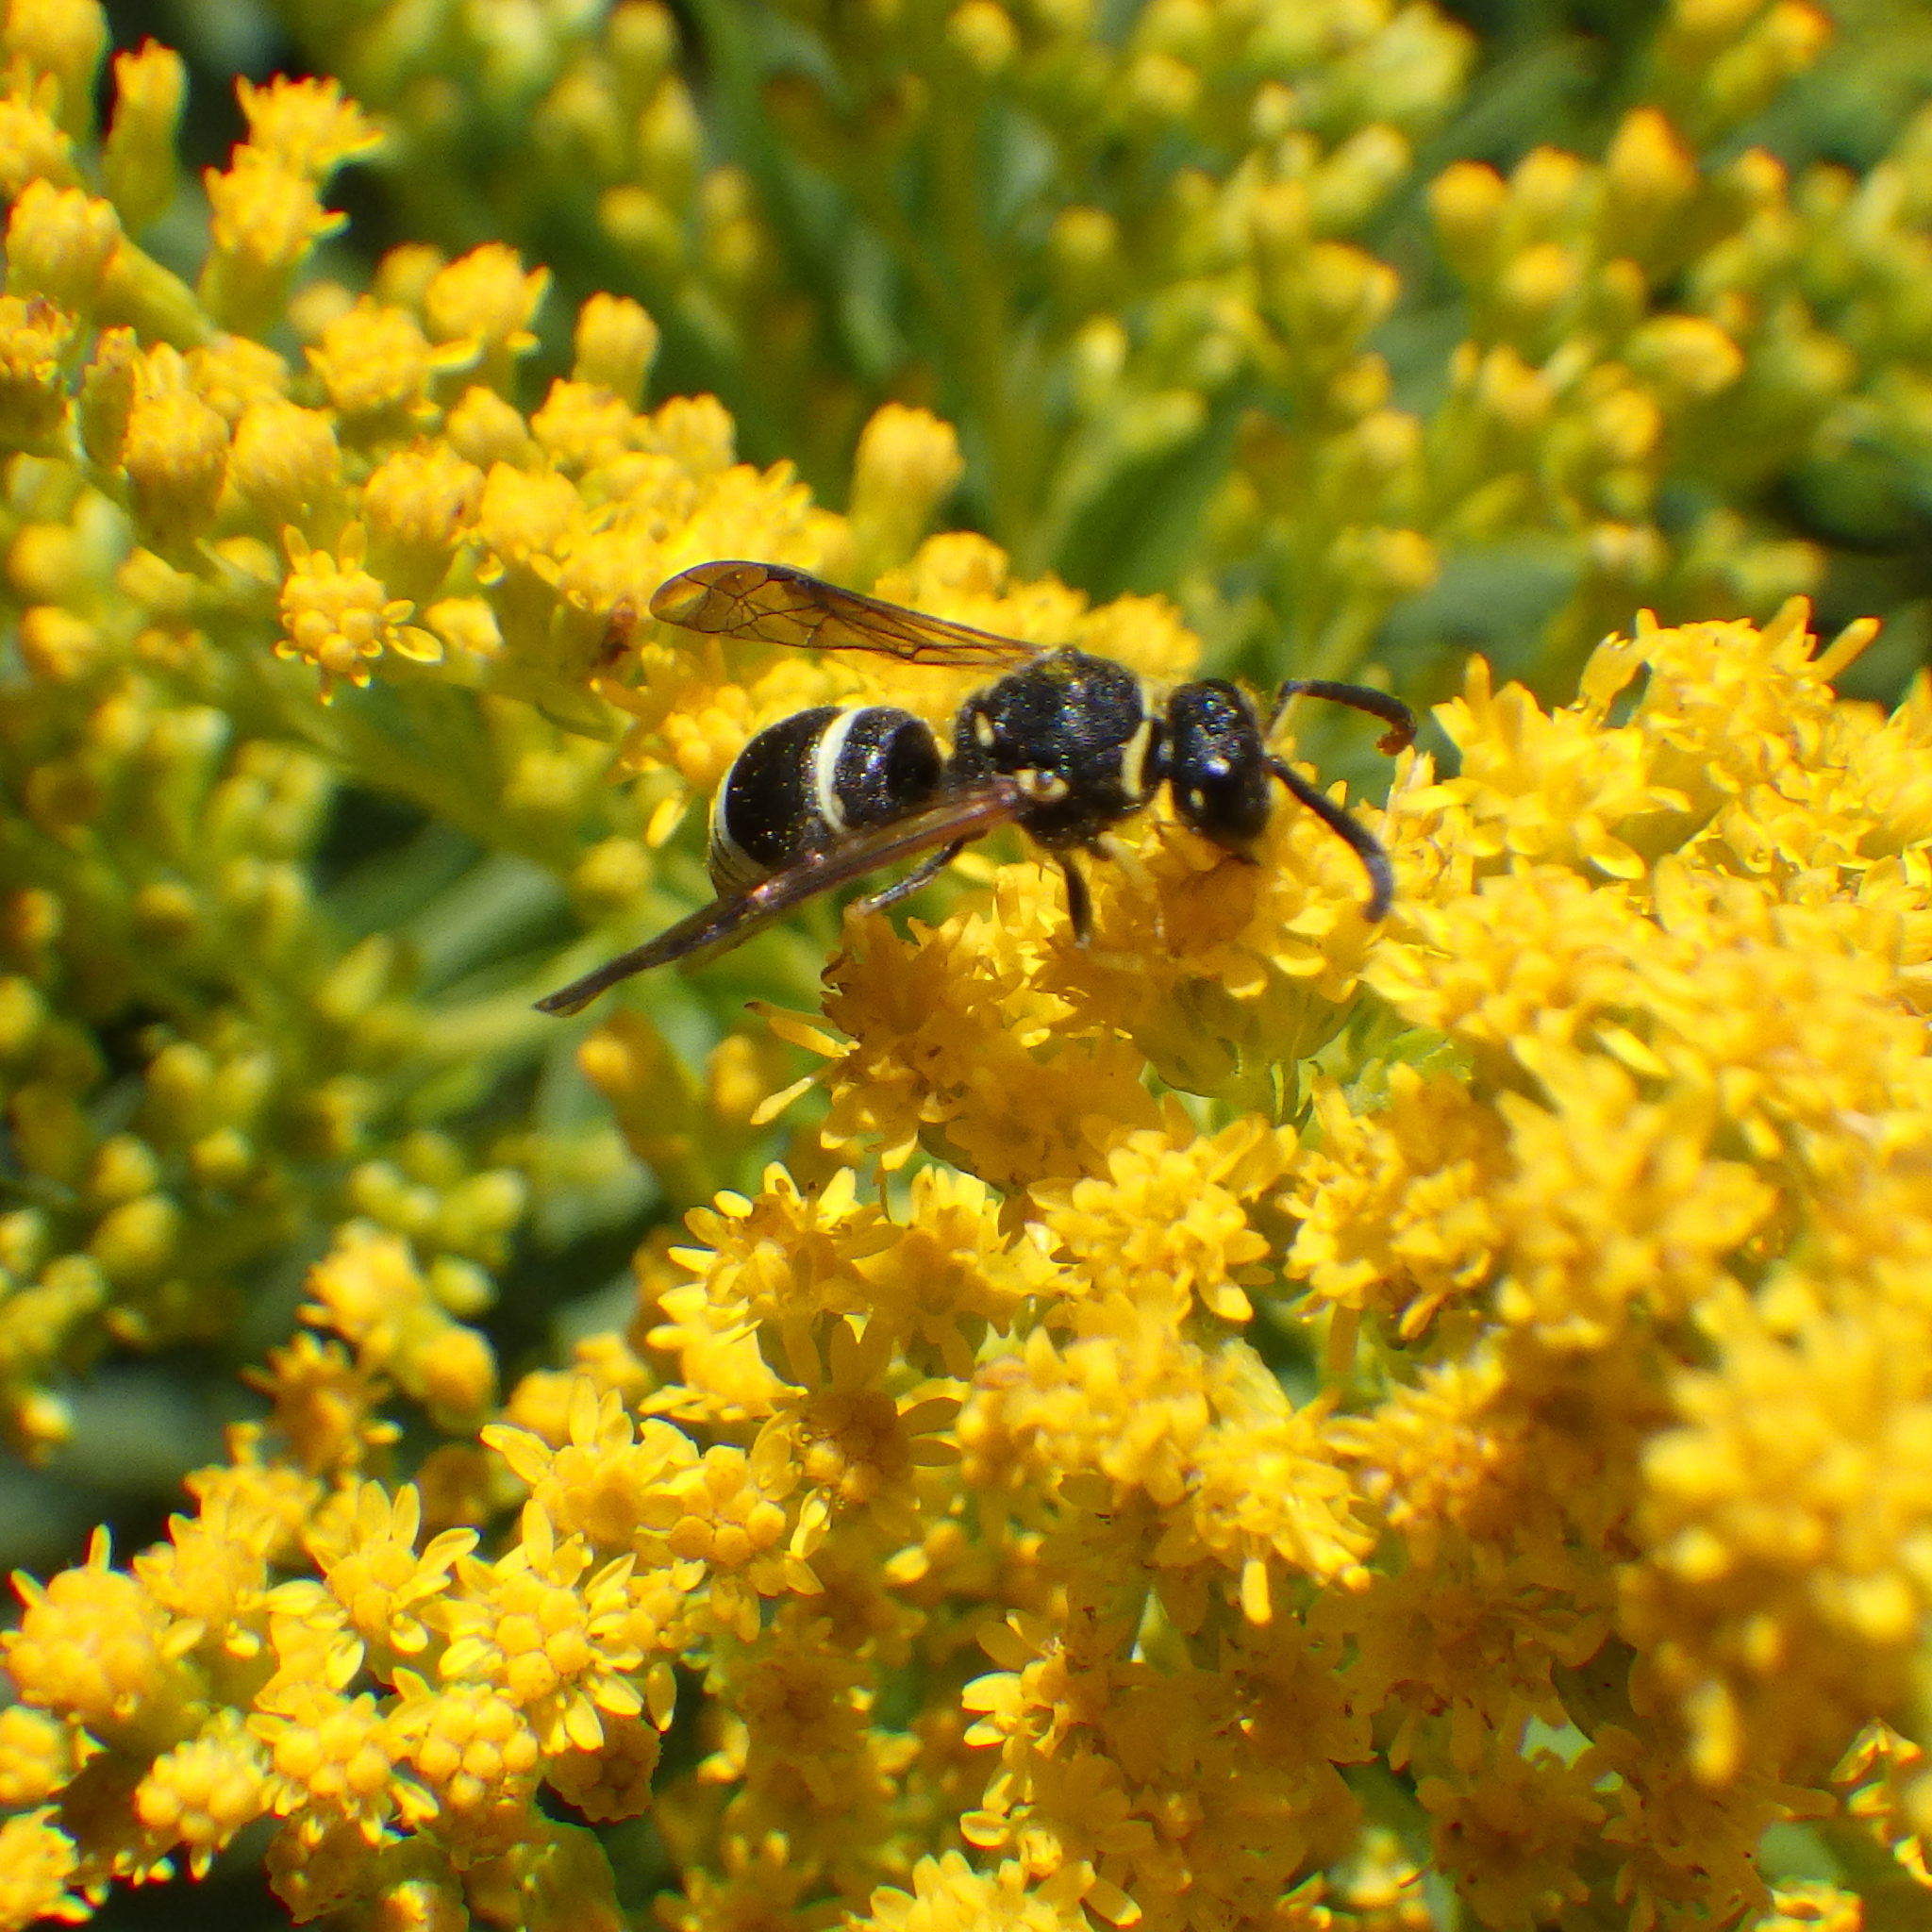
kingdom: Animalia
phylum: Arthropoda
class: Insecta
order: Hymenoptera
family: Vespidae
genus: Ancistrocerus
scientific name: Ancistrocerus
